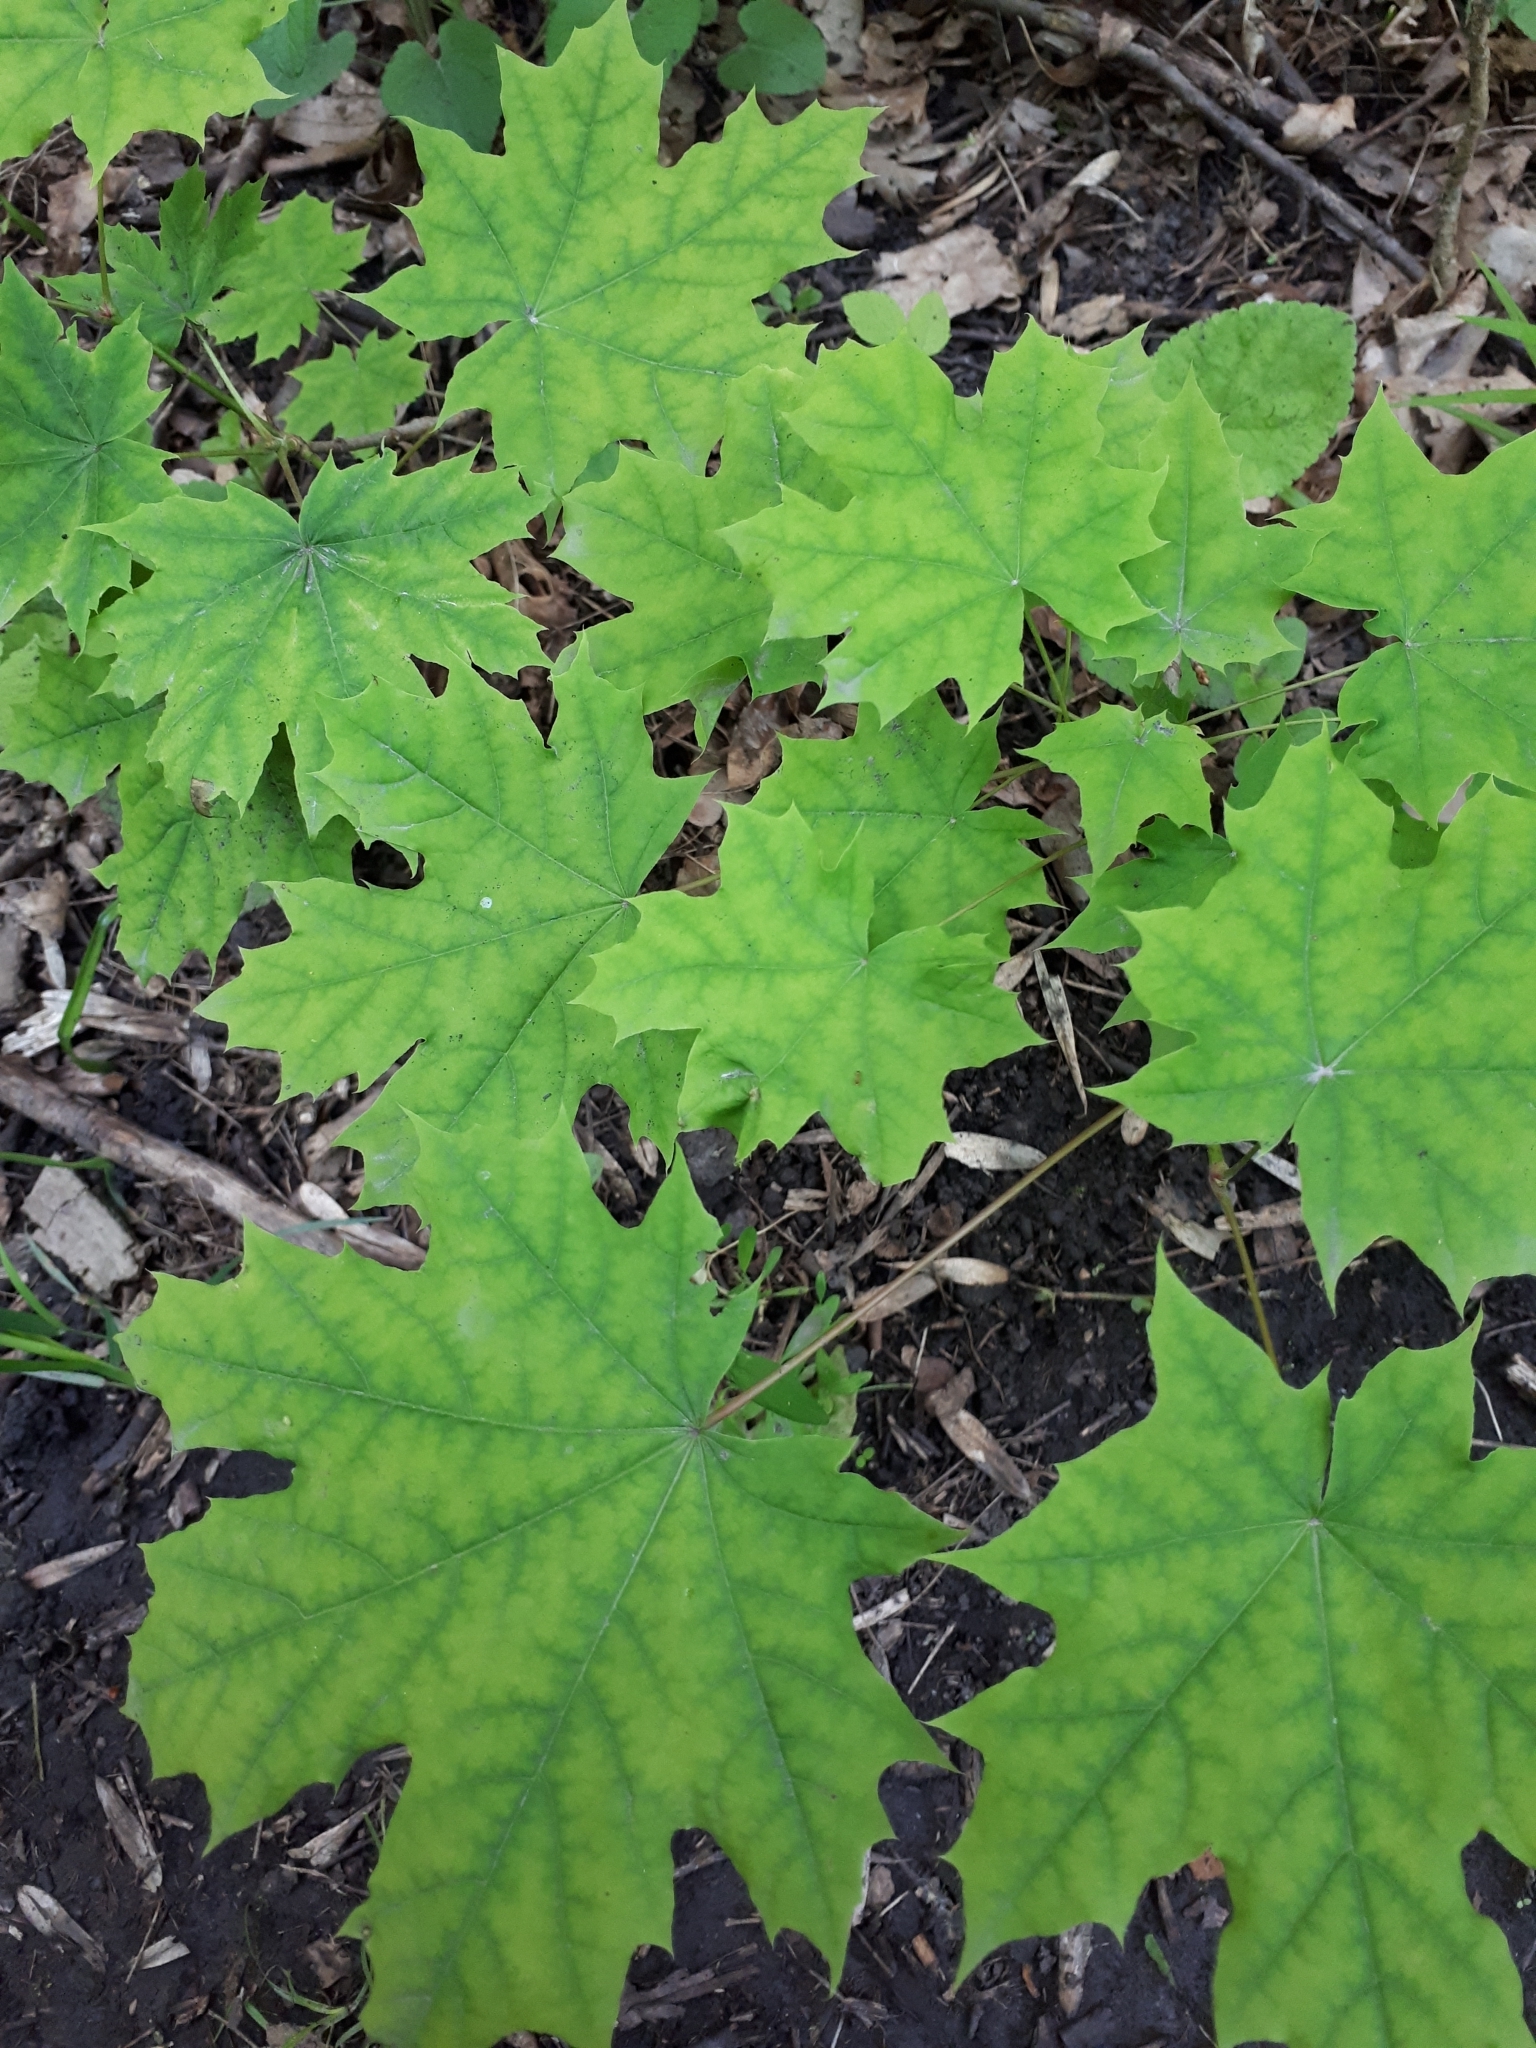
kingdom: Plantae
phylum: Tracheophyta
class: Magnoliopsida
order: Sapindales
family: Sapindaceae
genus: Acer
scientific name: Acer platanoides
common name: Norway maple
